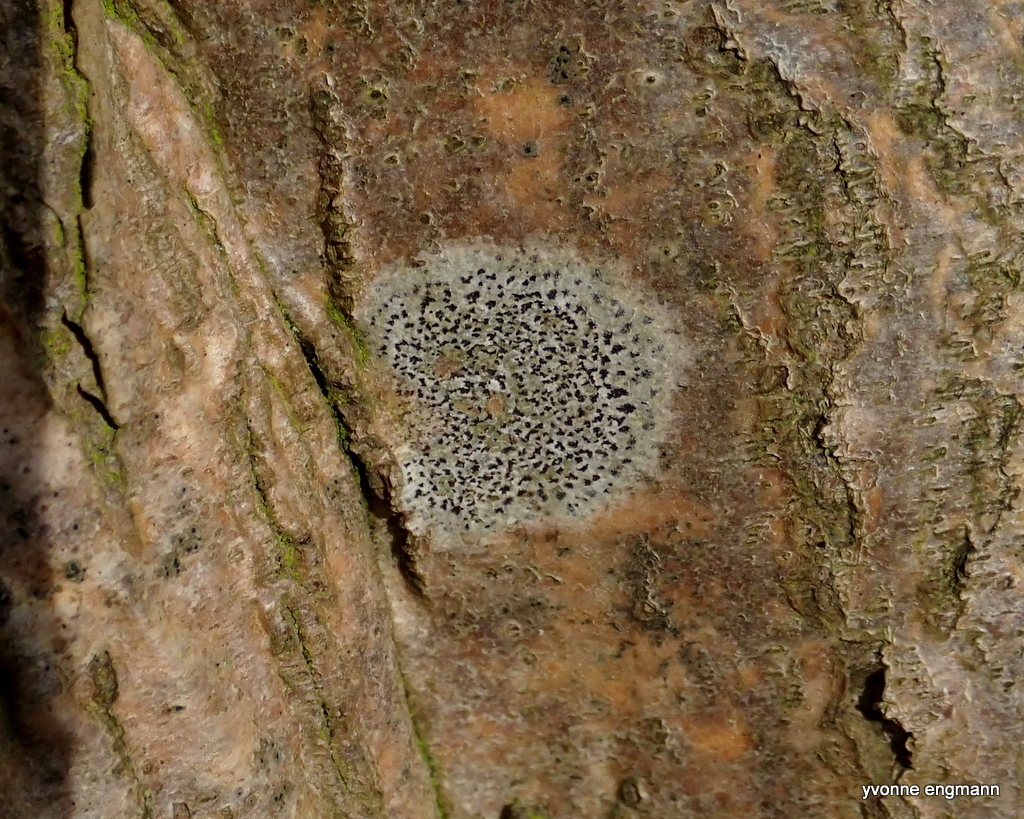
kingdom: Fungi
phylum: Ascomycota
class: Arthoniomycetes
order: Arthoniales
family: Arthoniaceae
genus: Arthonia
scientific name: Arthonia radiata
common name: Asterisk lichen
